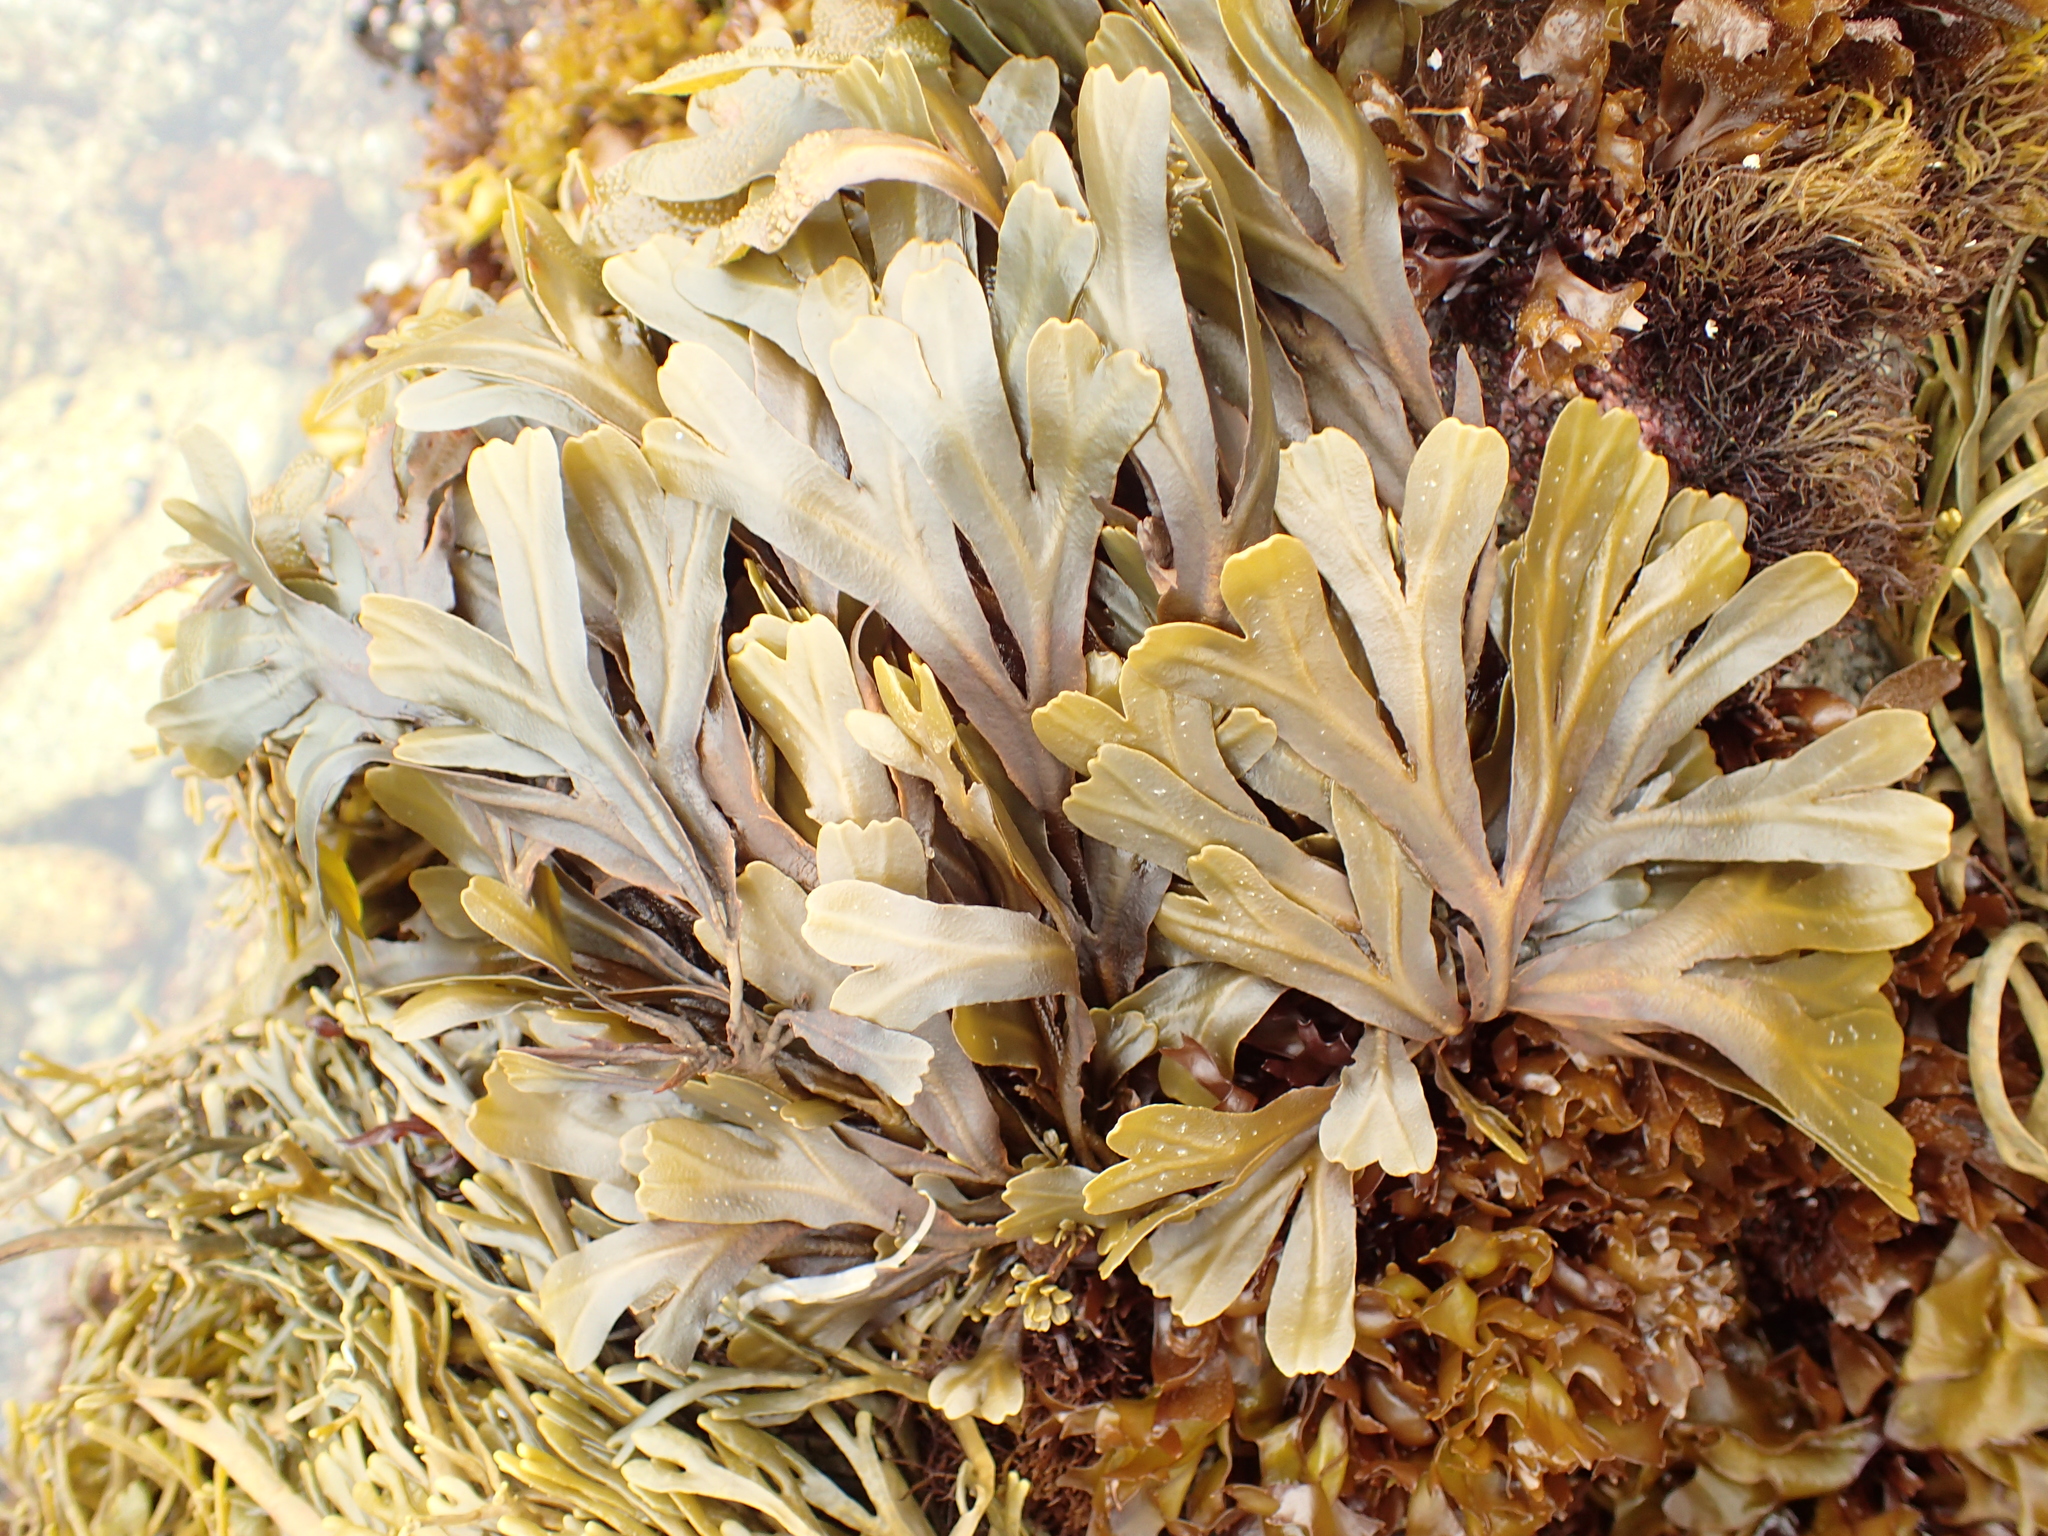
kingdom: Chromista
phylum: Ochrophyta
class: Phaeophyceae
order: Fucales
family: Fucaceae
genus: Fucus
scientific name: Fucus distichus
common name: Rockweed
